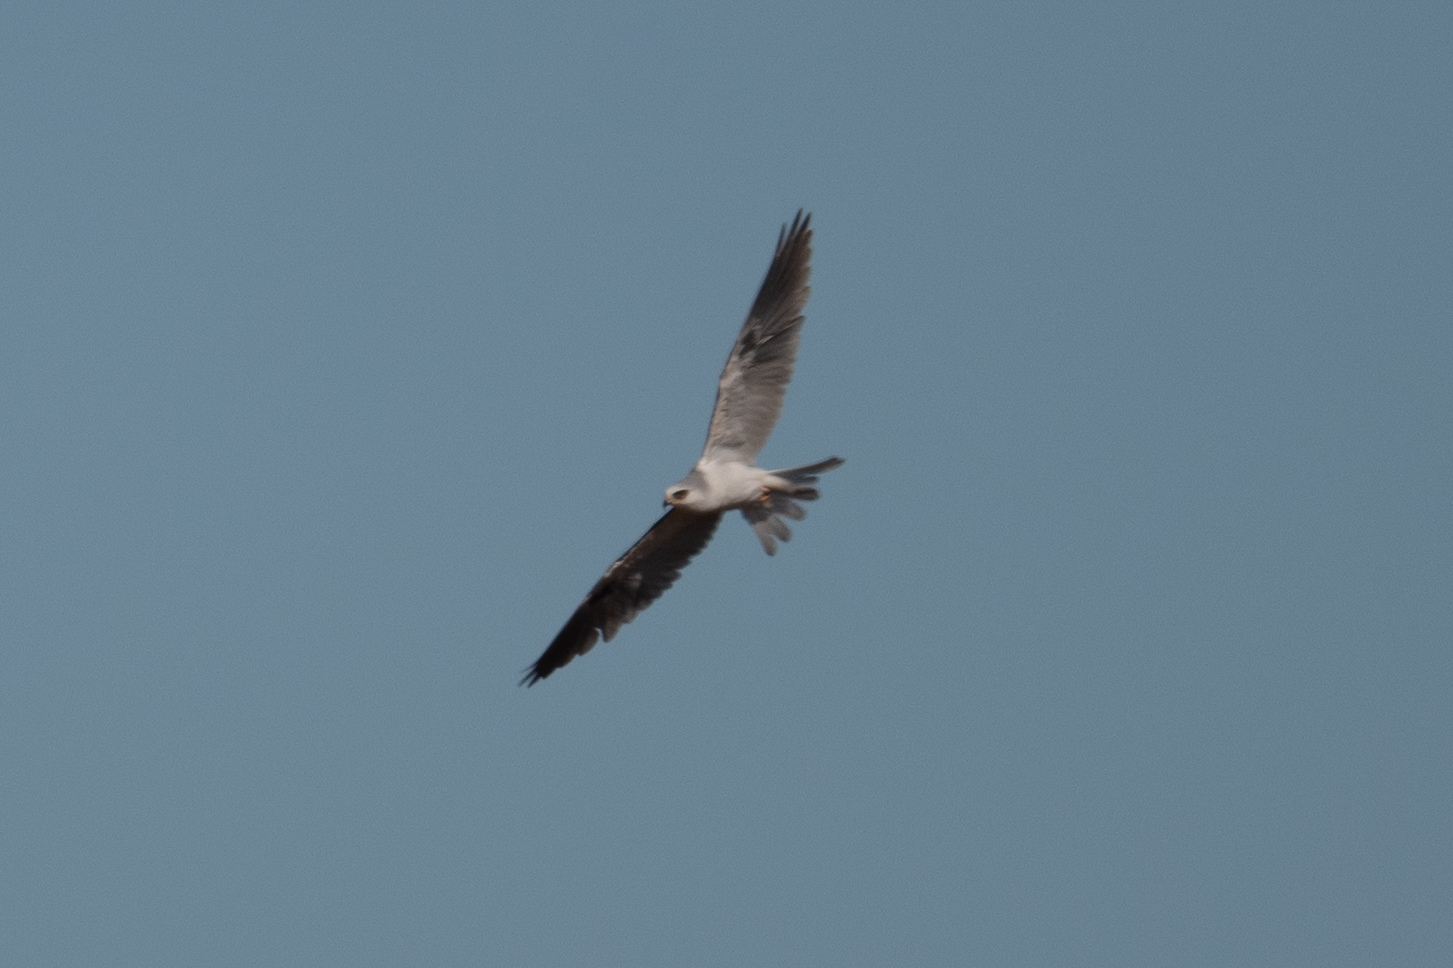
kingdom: Animalia
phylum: Chordata
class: Aves
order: Accipitriformes
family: Accipitridae
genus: Elanus
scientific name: Elanus leucurus
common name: White-tailed kite
